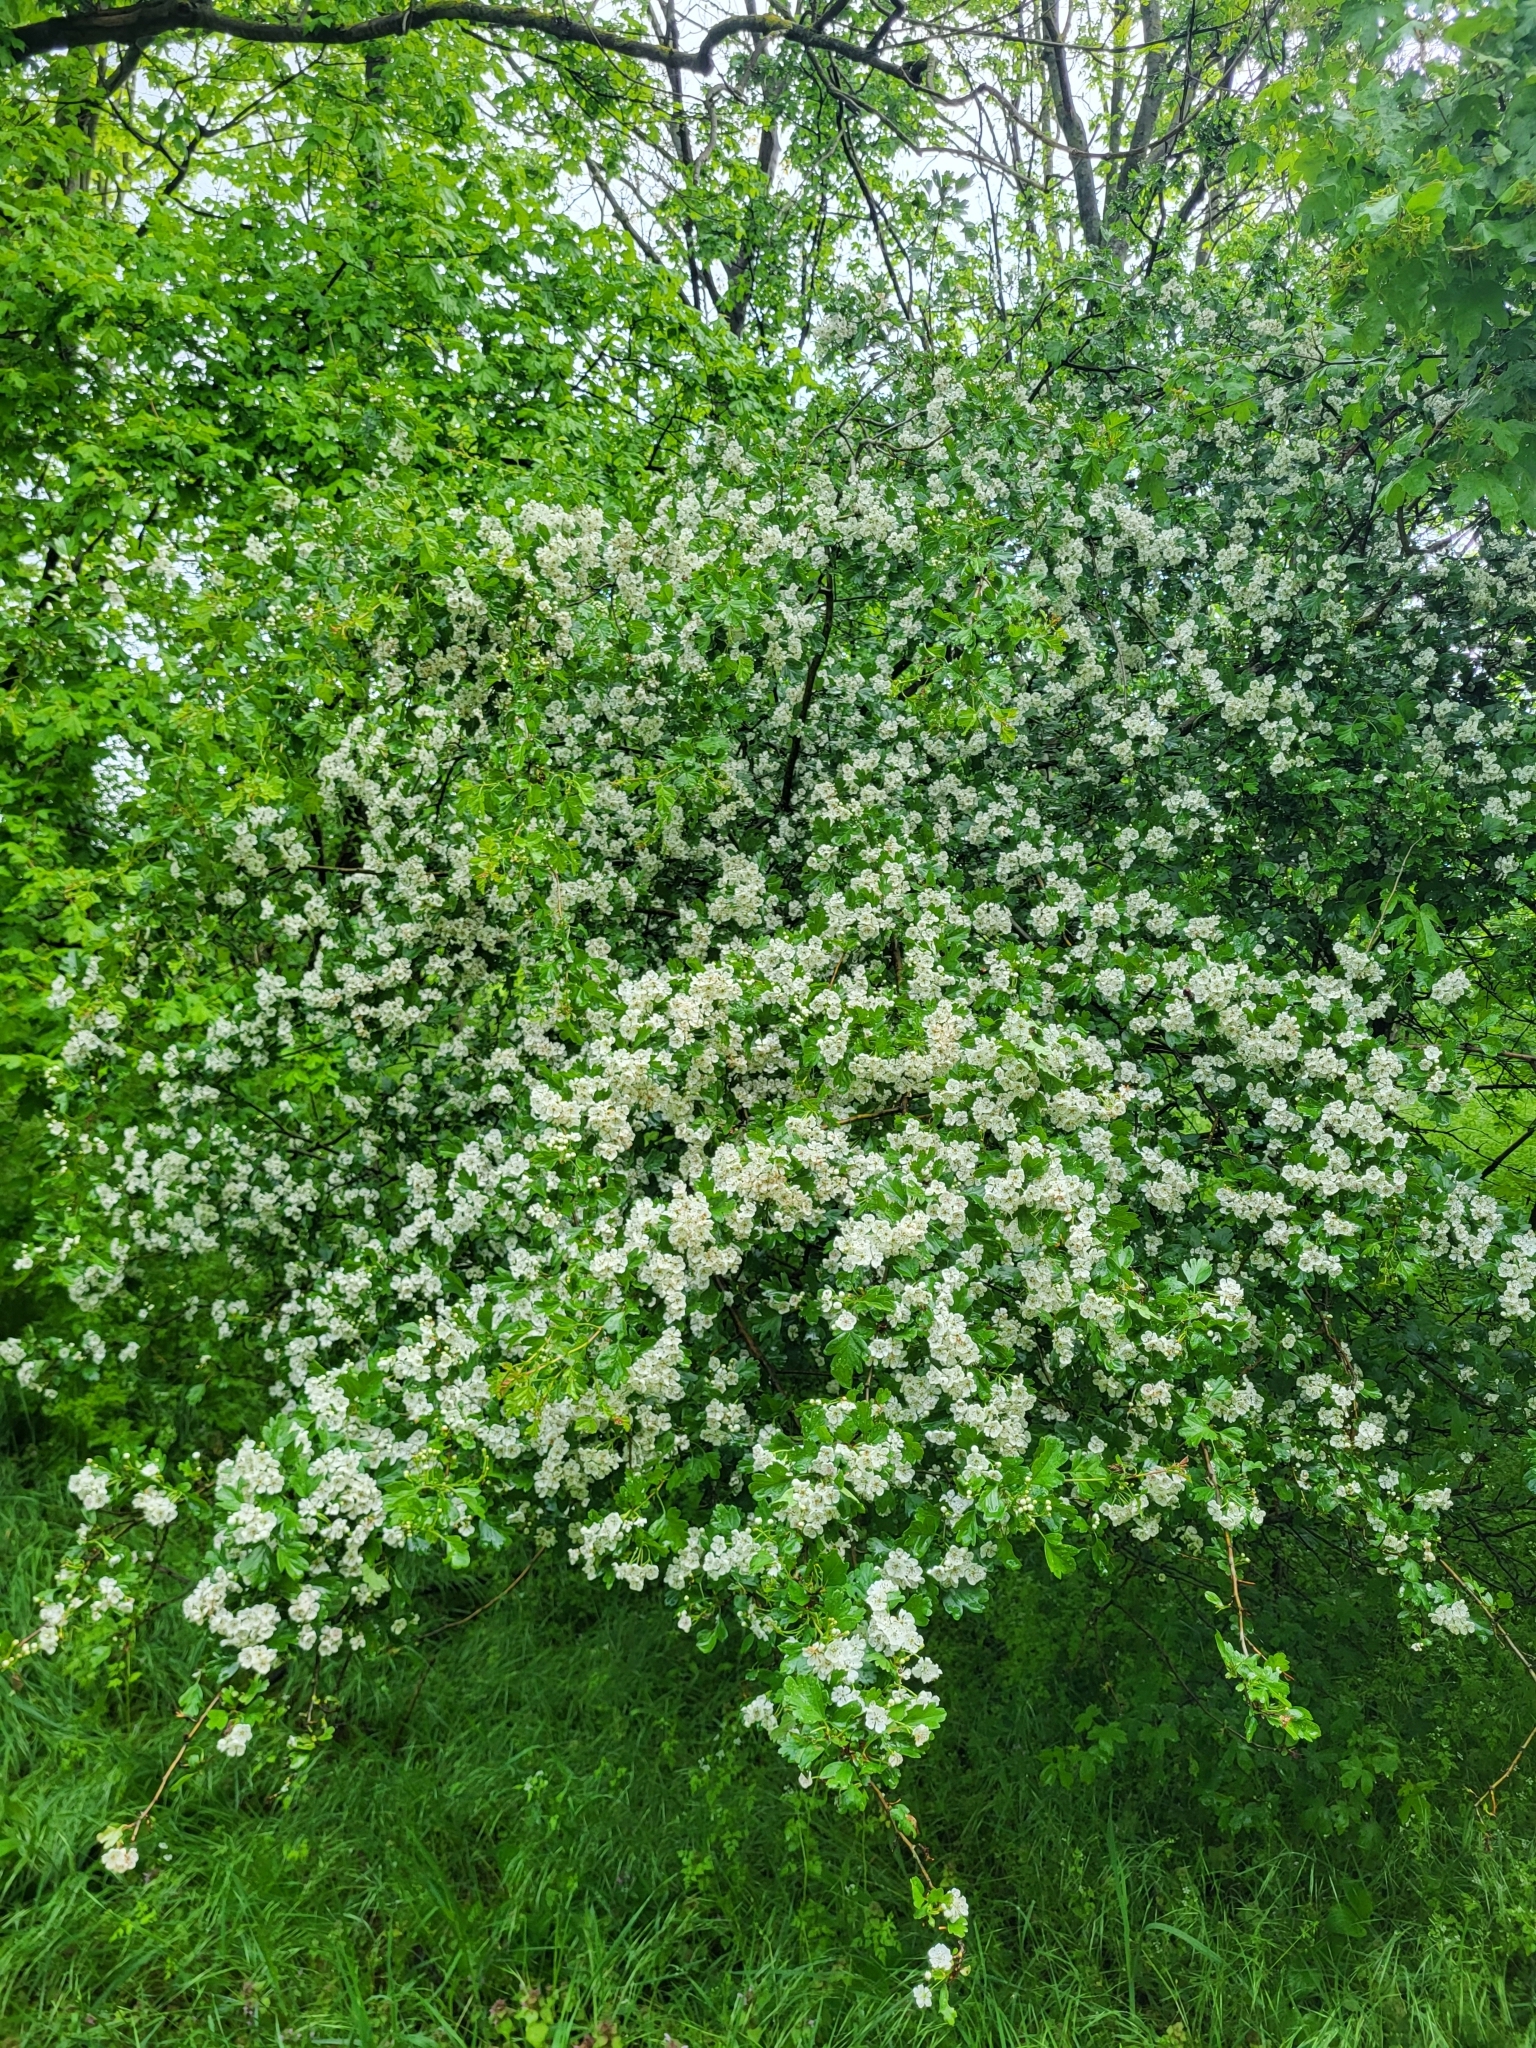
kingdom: Plantae
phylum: Tracheophyta
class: Magnoliopsida
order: Rosales
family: Rosaceae
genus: Crataegus
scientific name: Crataegus monogyna
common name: Hawthorn
